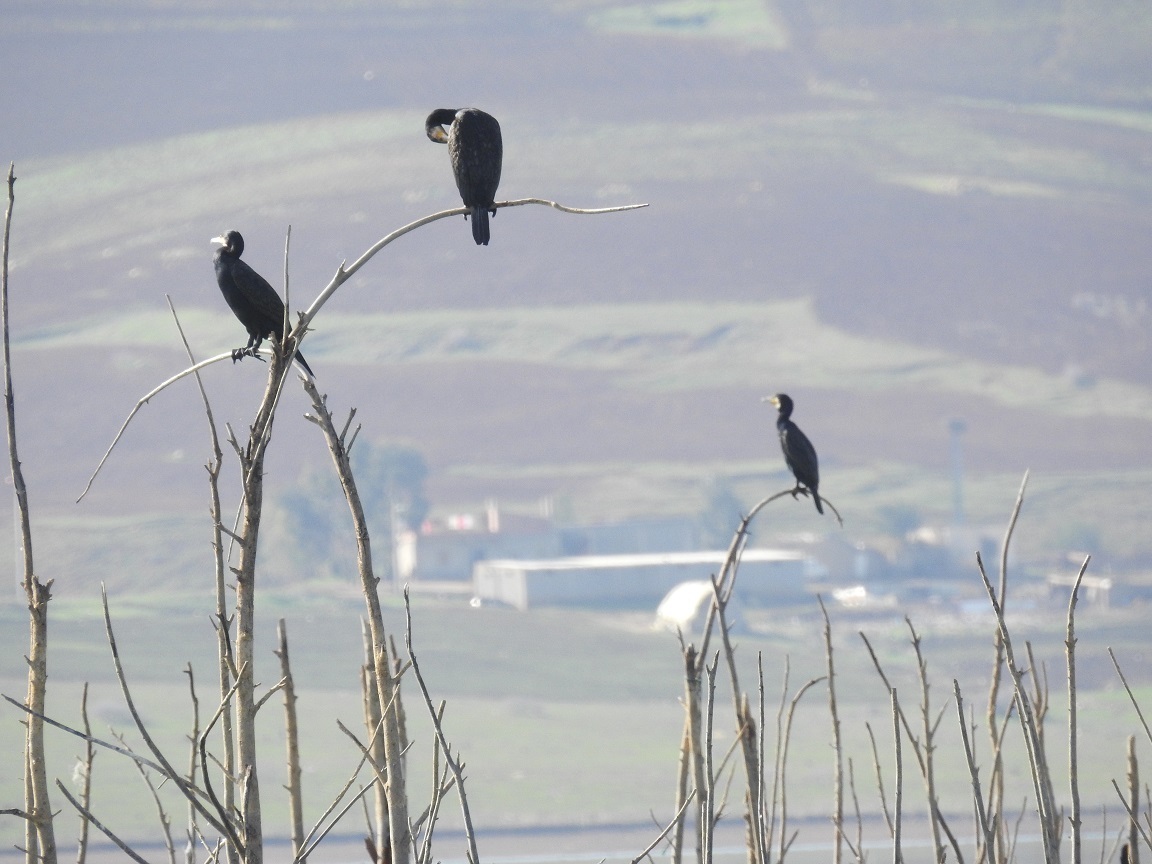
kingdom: Animalia
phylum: Chordata
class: Aves
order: Suliformes
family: Phalacrocoracidae
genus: Phalacrocorax
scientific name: Phalacrocorax carbo
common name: Great cormorant
